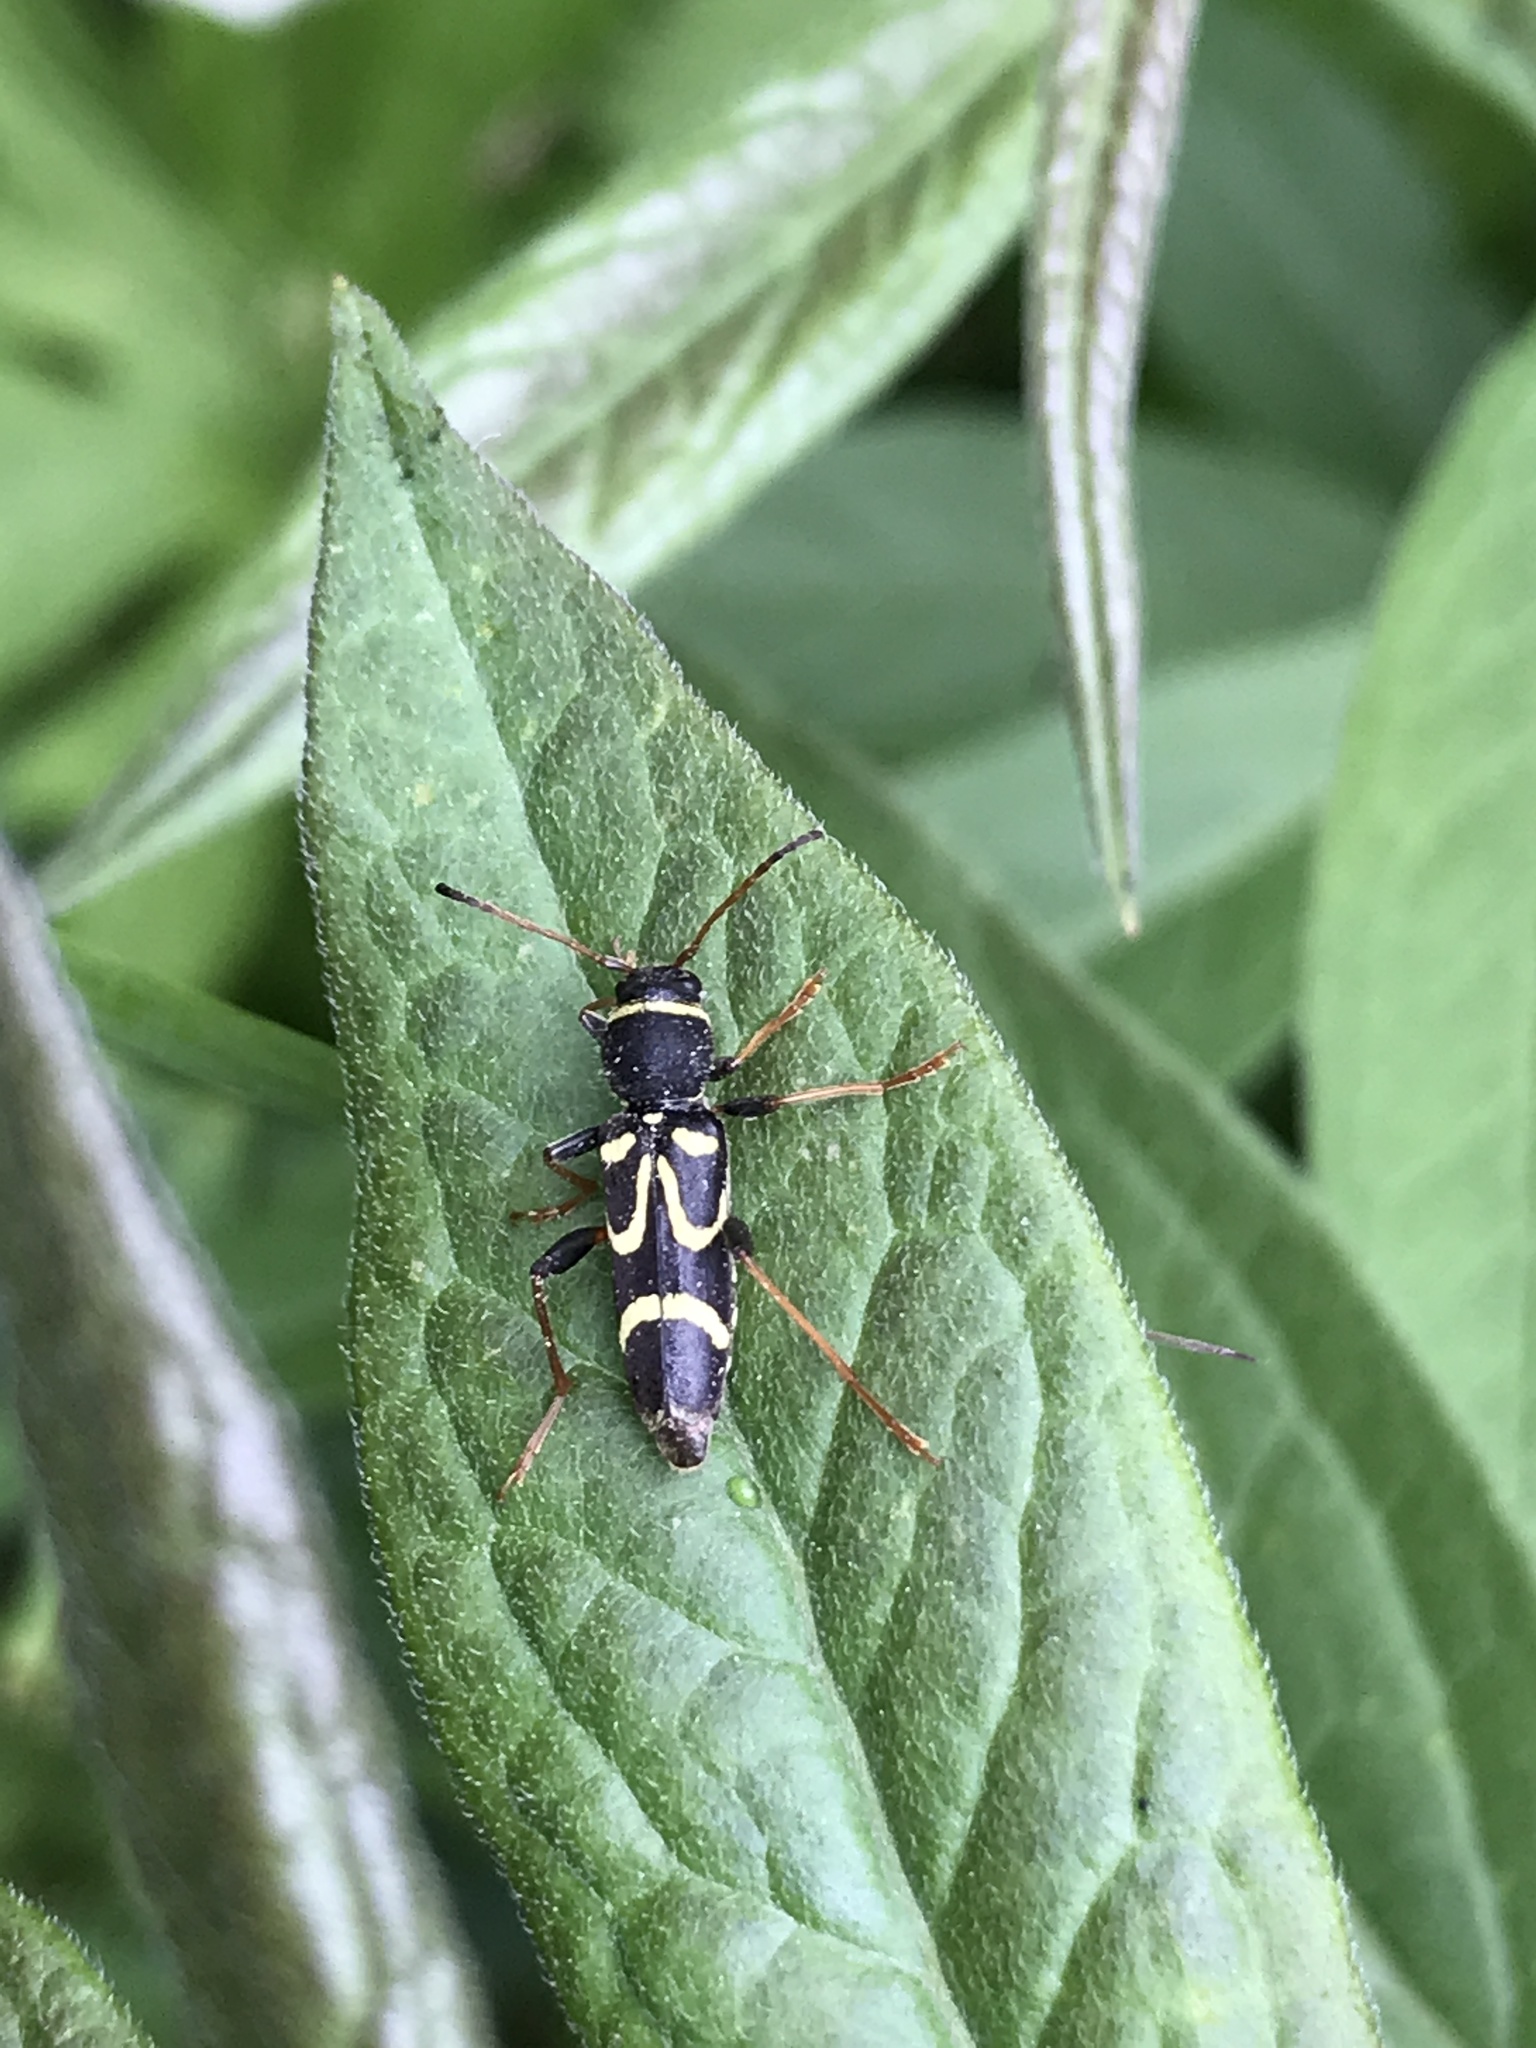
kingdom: Animalia
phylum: Arthropoda
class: Insecta
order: Coleoptera
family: Cerambycidae
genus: Clytus
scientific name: Clytus ruricola
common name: Round-necked longhorn beetle
